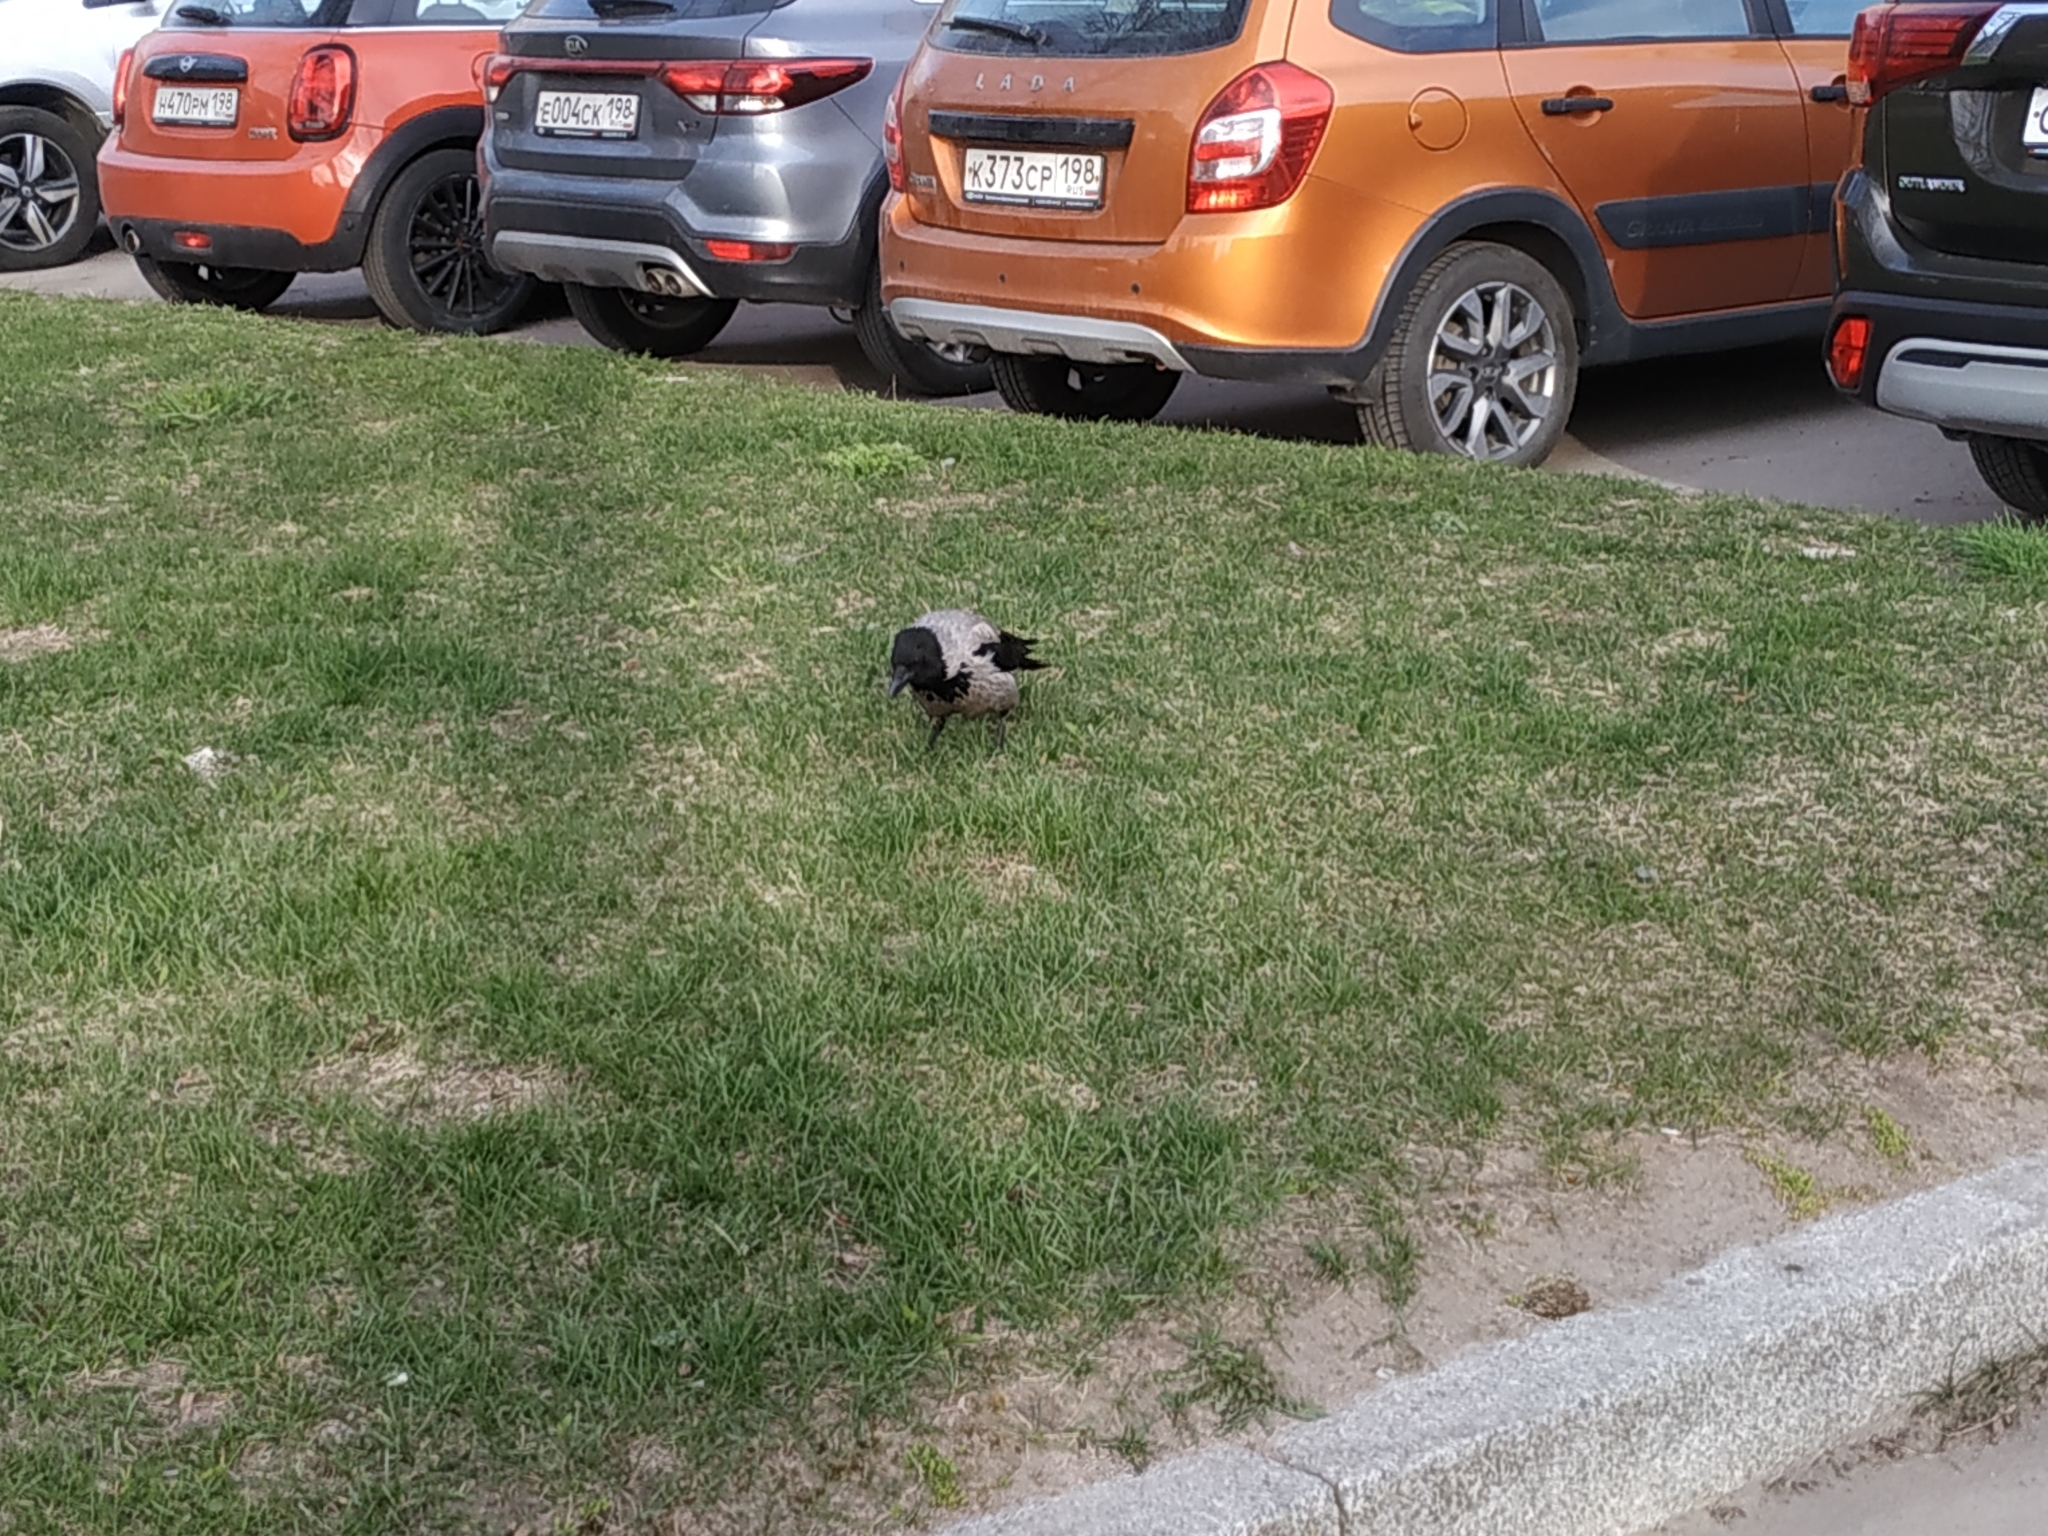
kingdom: Animalia
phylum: Chordata
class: Aves
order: Passeriformes
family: Corvidae
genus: Corvus
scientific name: Corvus cornix
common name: Hooded crow
